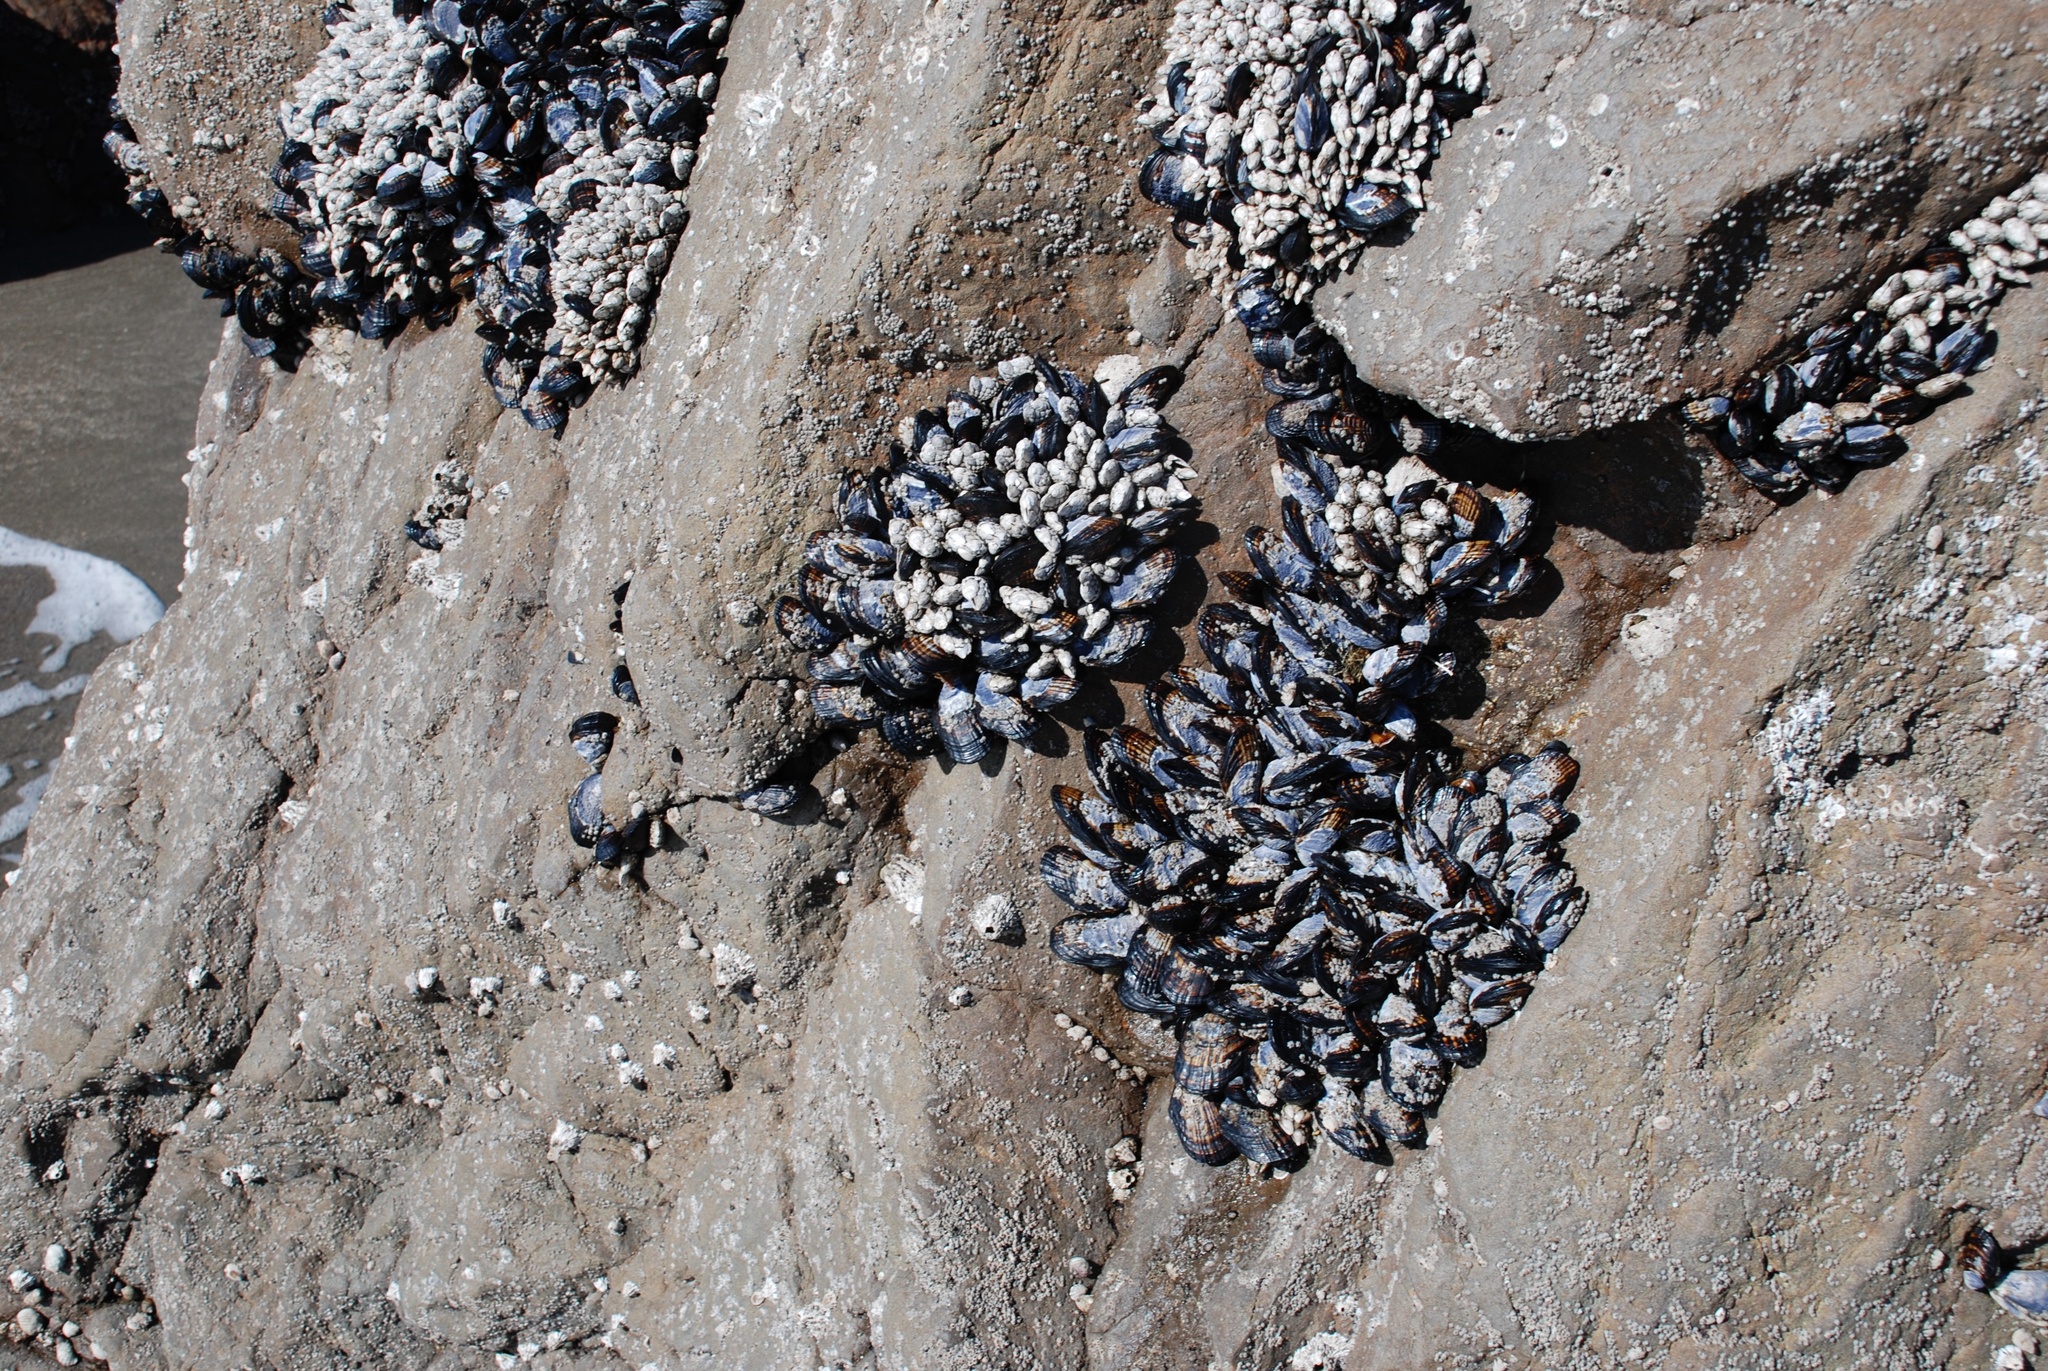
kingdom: Animalia
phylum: Mollusca
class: Bivalvia
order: Mytilida
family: Mytilidae
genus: Mytilus
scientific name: Mytilus californianus
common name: California mussel
